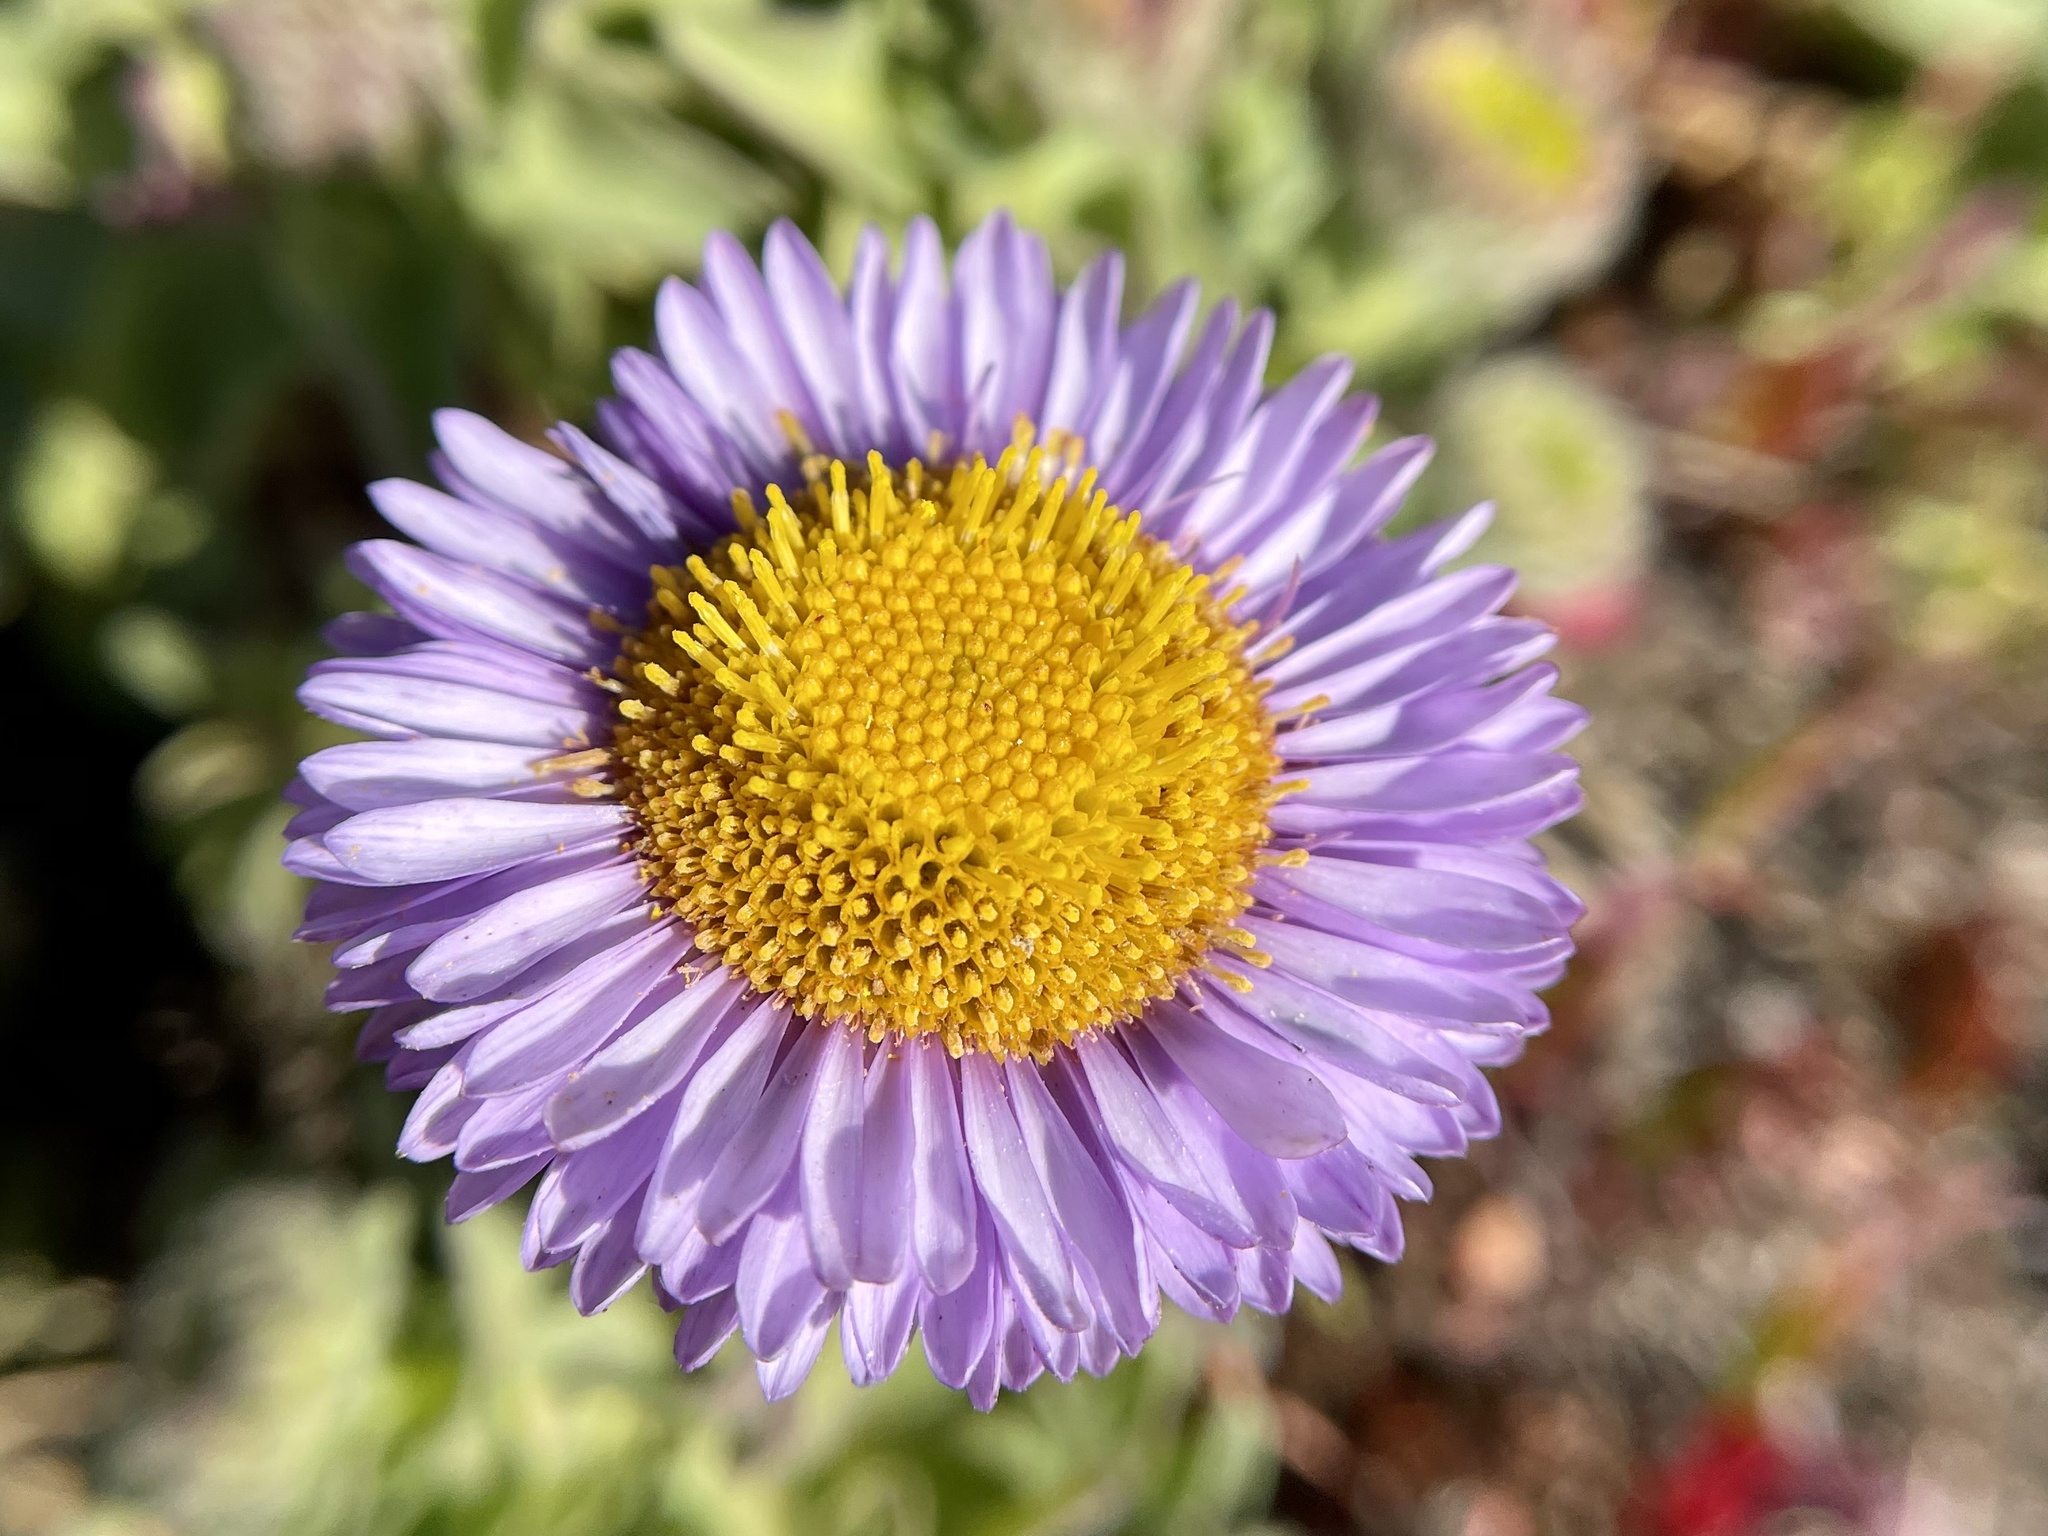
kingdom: Plantae
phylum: Tracheophyta
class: Magnoliopsida
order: Asterales
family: Asteraceae
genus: Erigeron
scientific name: Erigeron glaucus
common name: Seaside daisy
